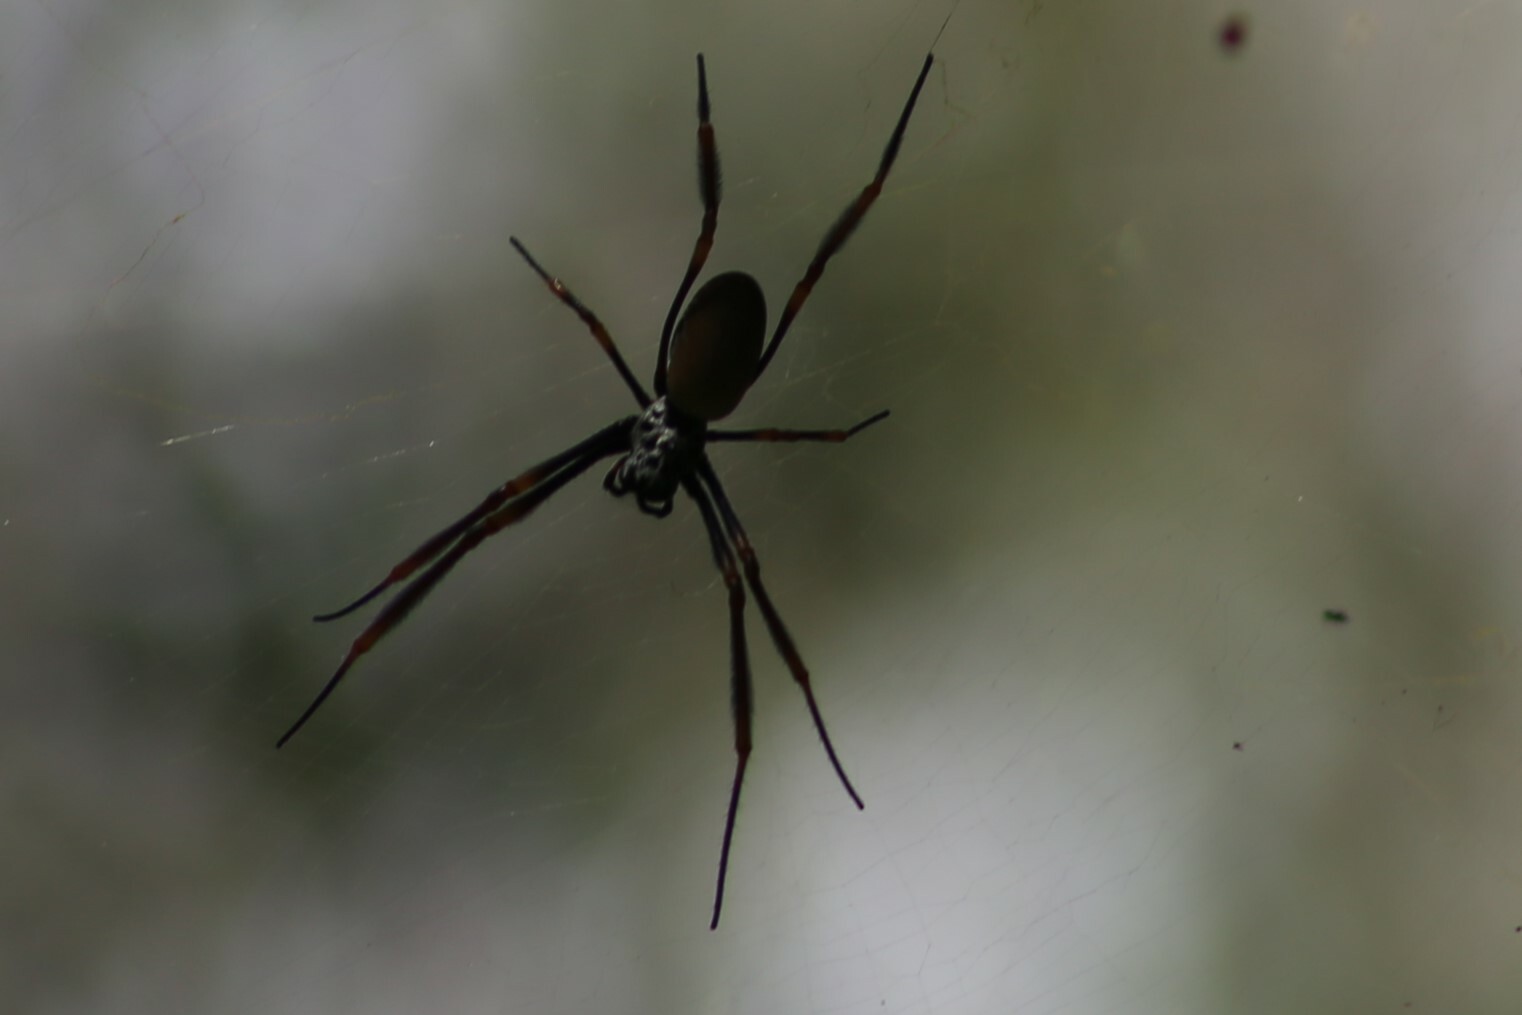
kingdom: Animalia
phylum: Arthropoda
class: Arachnida
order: Araneae
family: Araneidae
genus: Trichonephila
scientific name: Trichonephila plumipes
